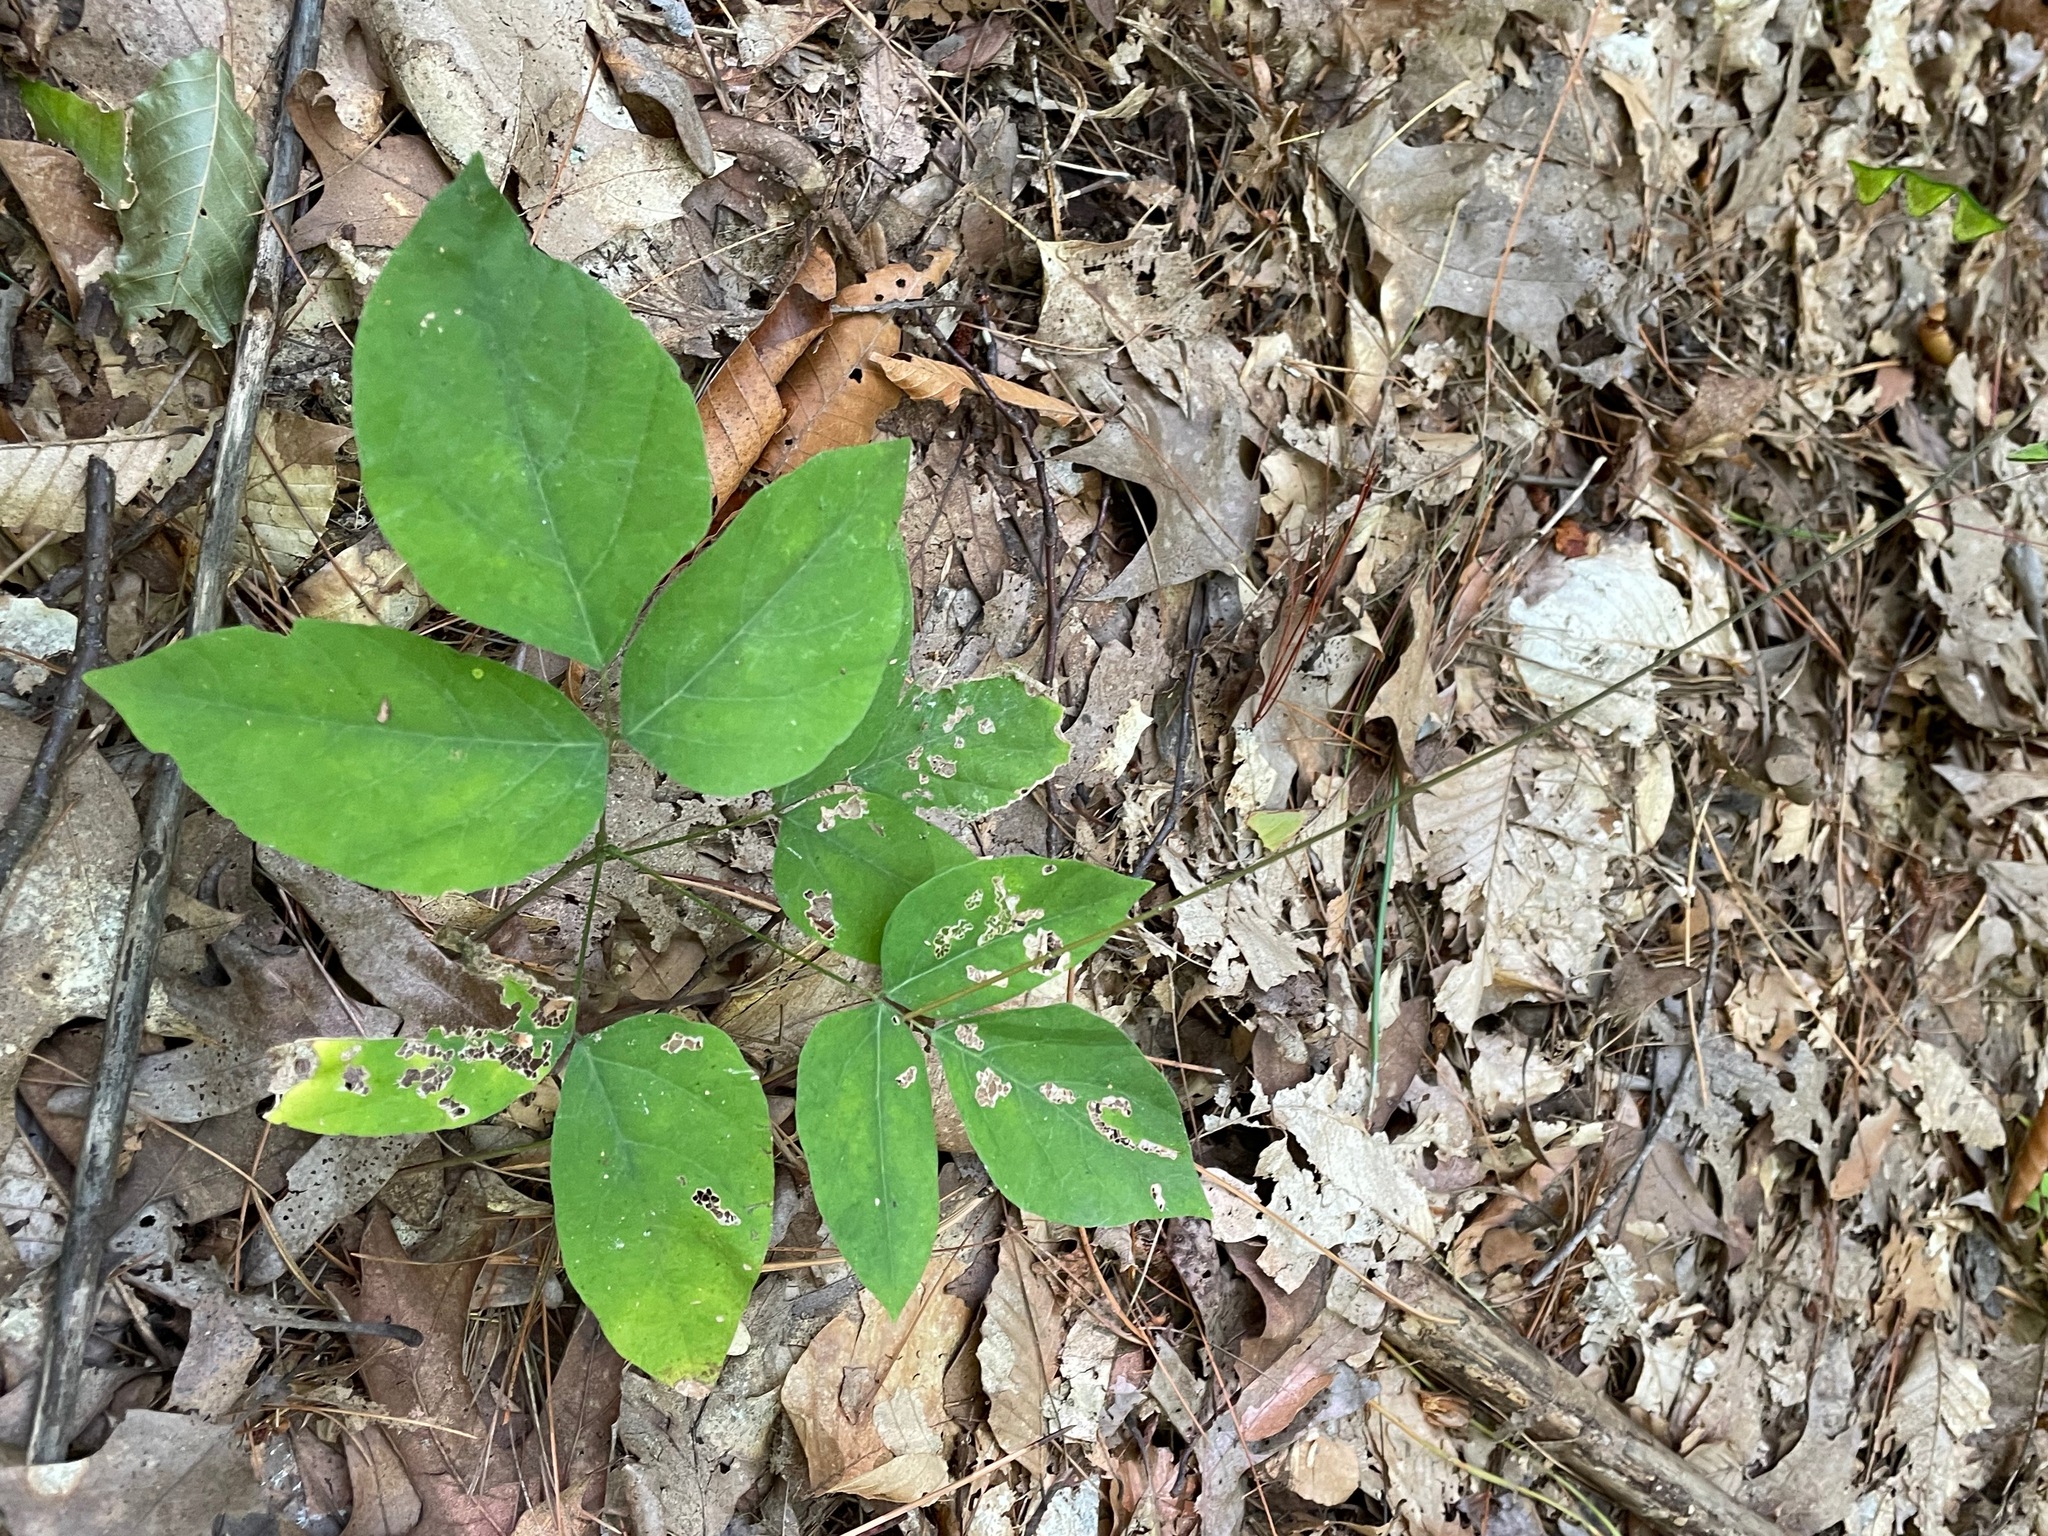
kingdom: Plantae
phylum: Tracheophyta
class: Magnoliopsida
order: Fabales
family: Fabaceae
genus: Hylodesmum
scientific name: Hylodesmum nudiflorum
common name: Bare-stemmed tick-trefoil
